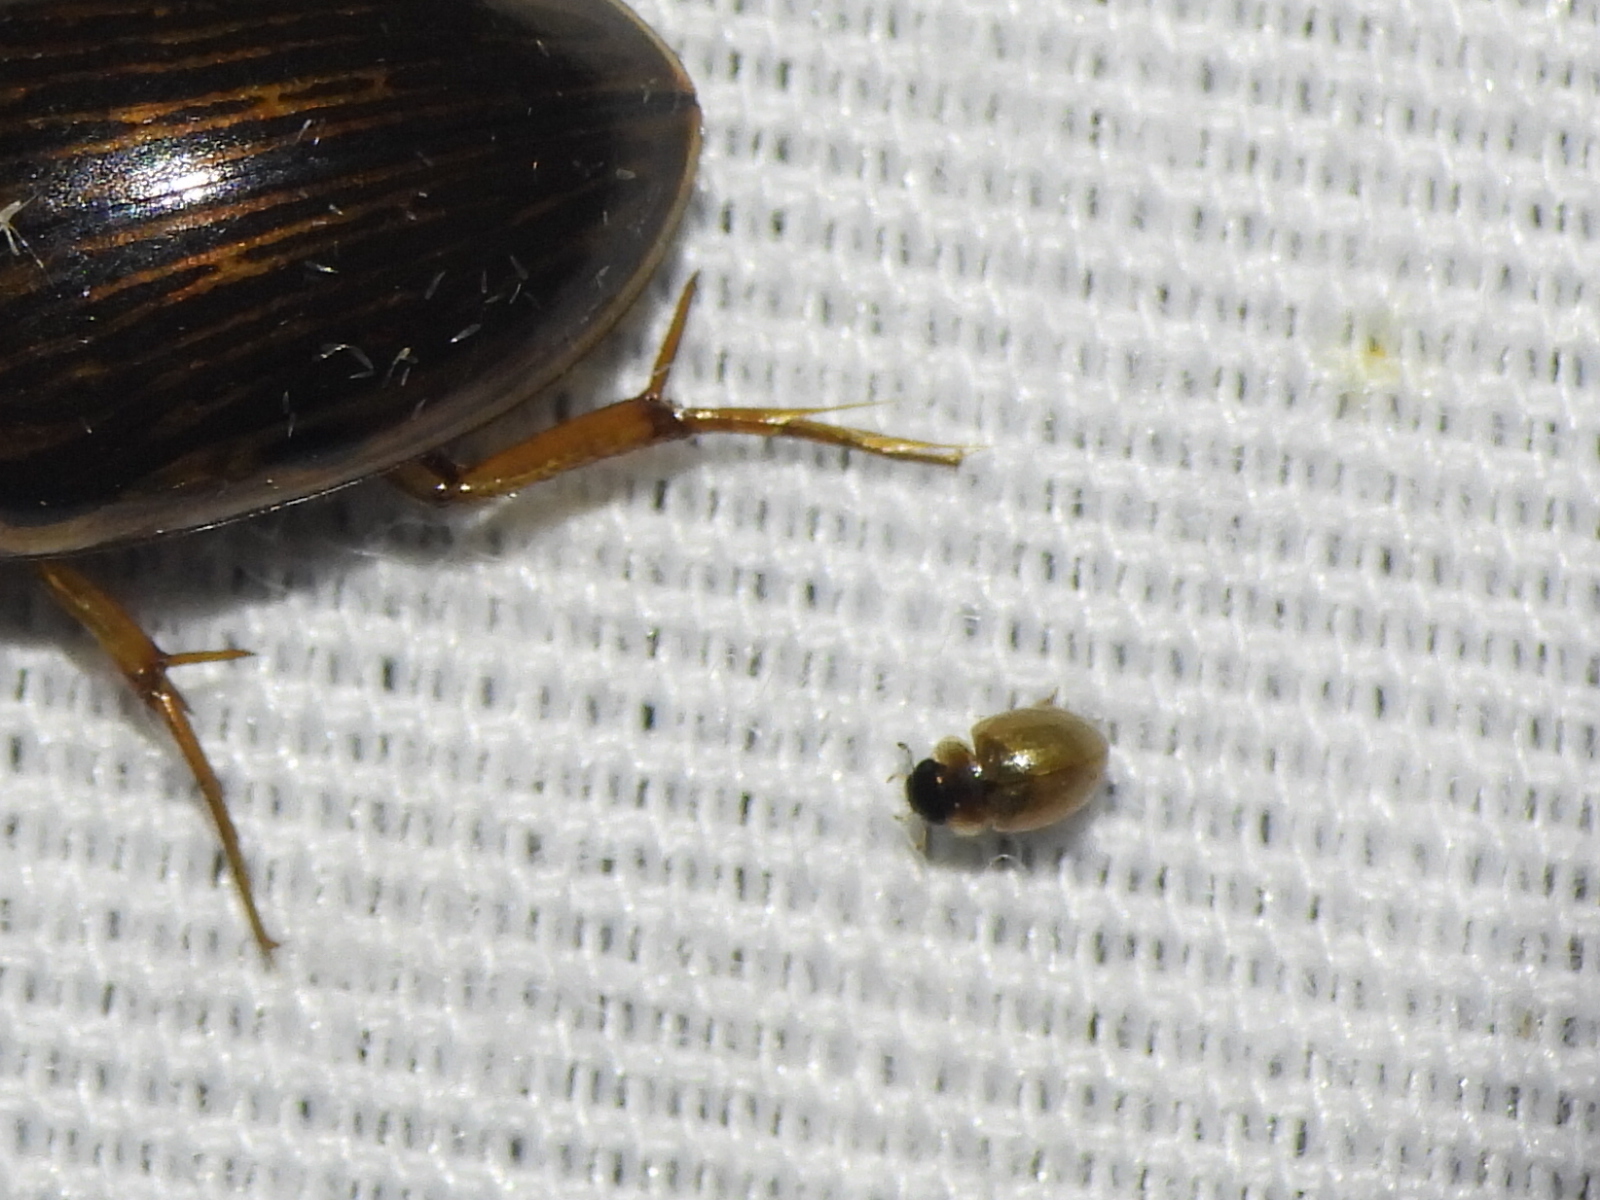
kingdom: Animalia
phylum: Arthropoda
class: Insecta
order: Coleoptera
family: Hydrophilidae
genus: Chaetarthria
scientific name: Chaetarthria
